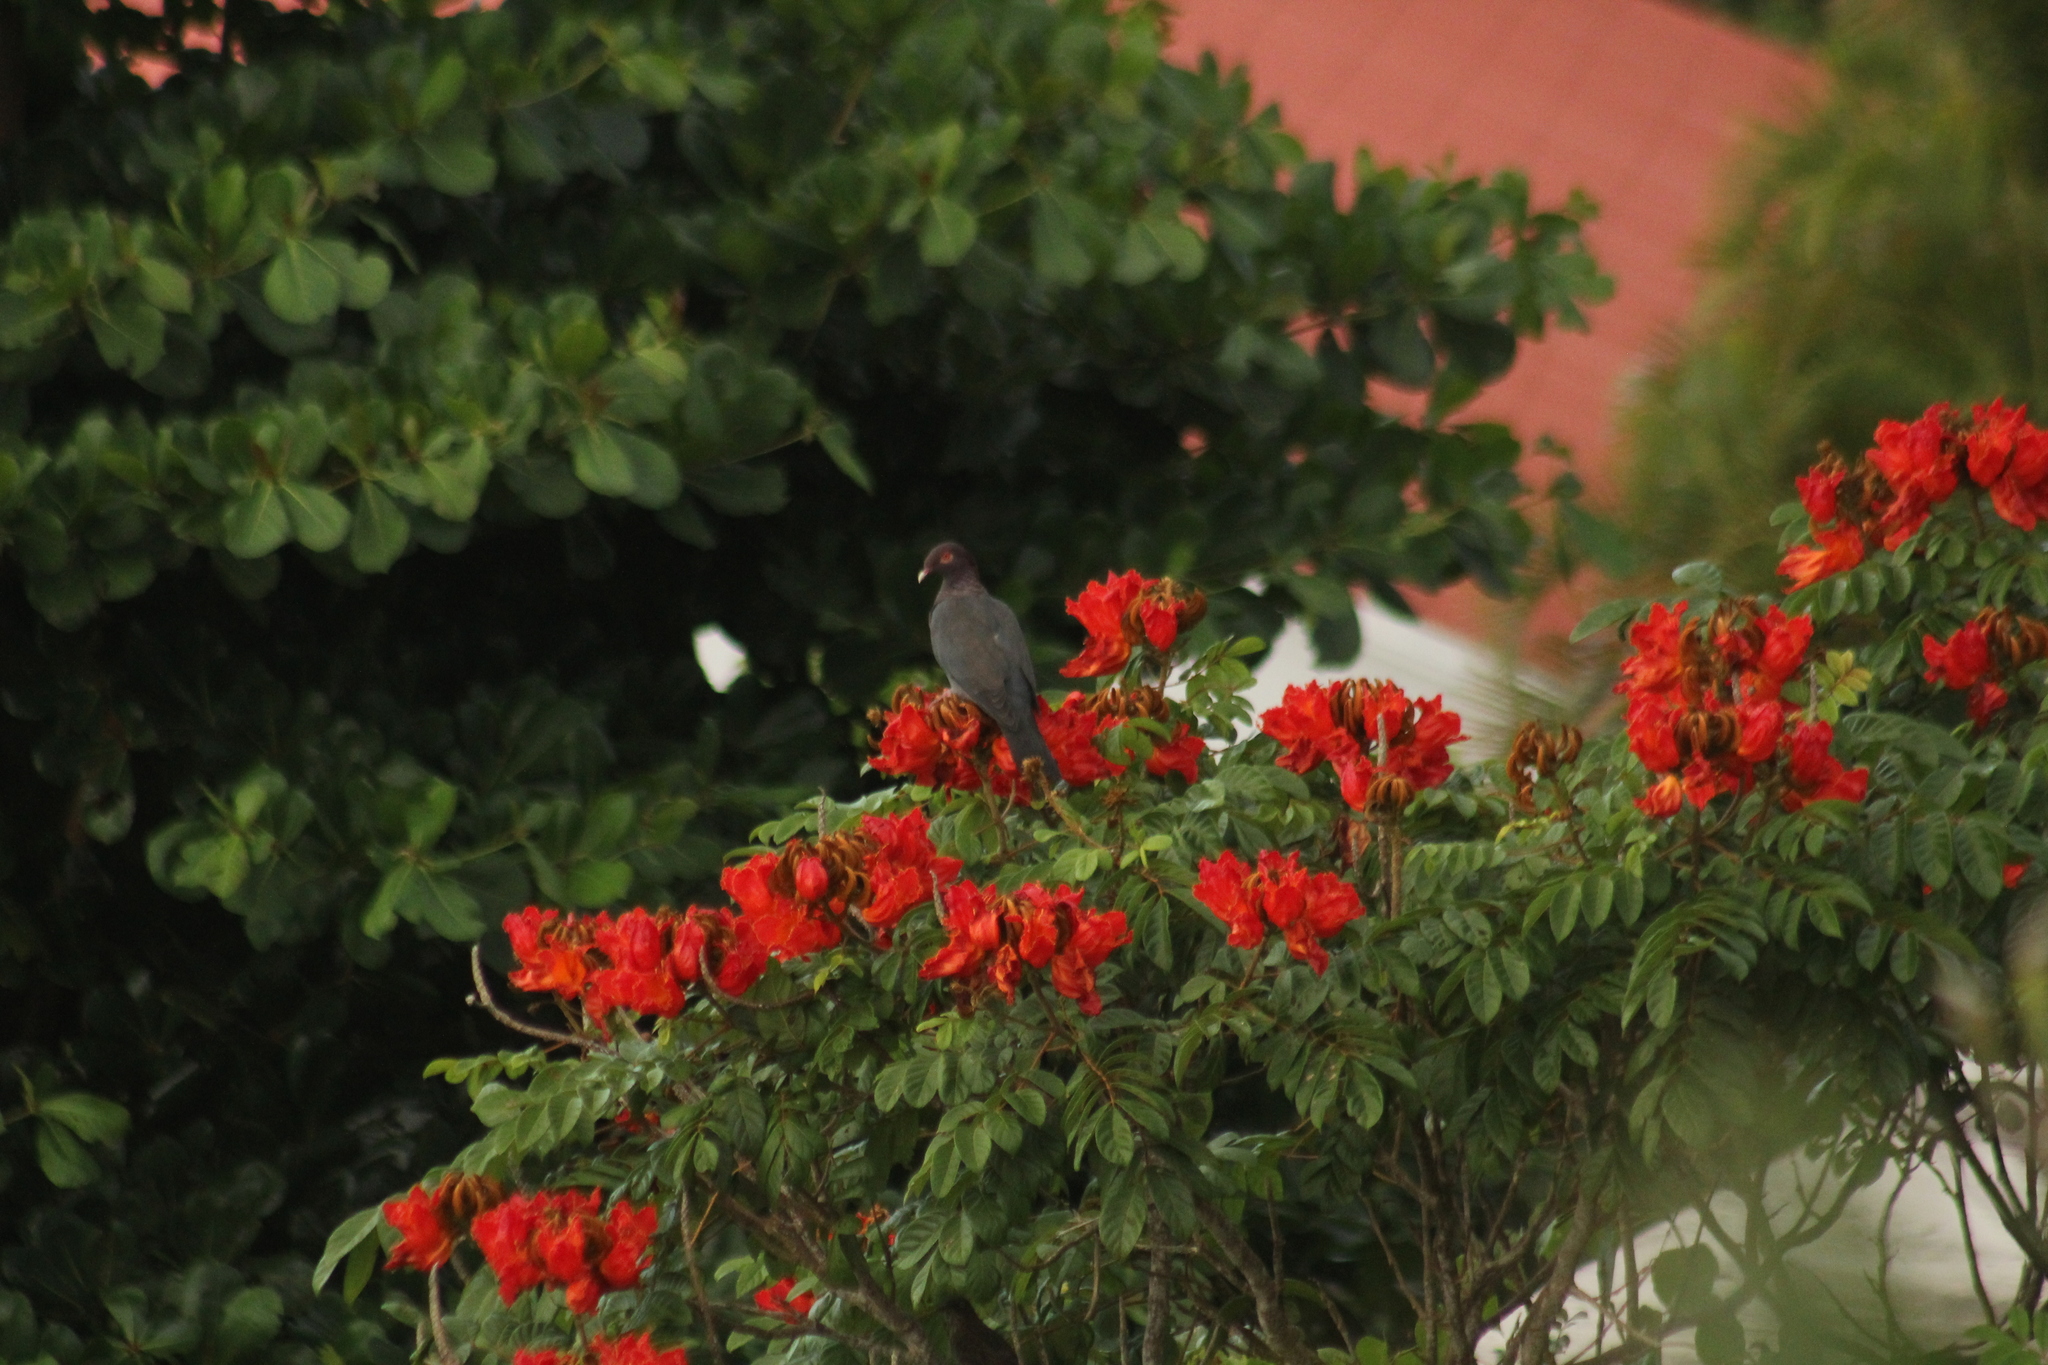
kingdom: Animalia
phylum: Chordata
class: Aves
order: Columbiformes
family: Columbidae
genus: Patagioenas
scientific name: Patagioenas squamosa
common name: Scaly-naped pigeon
